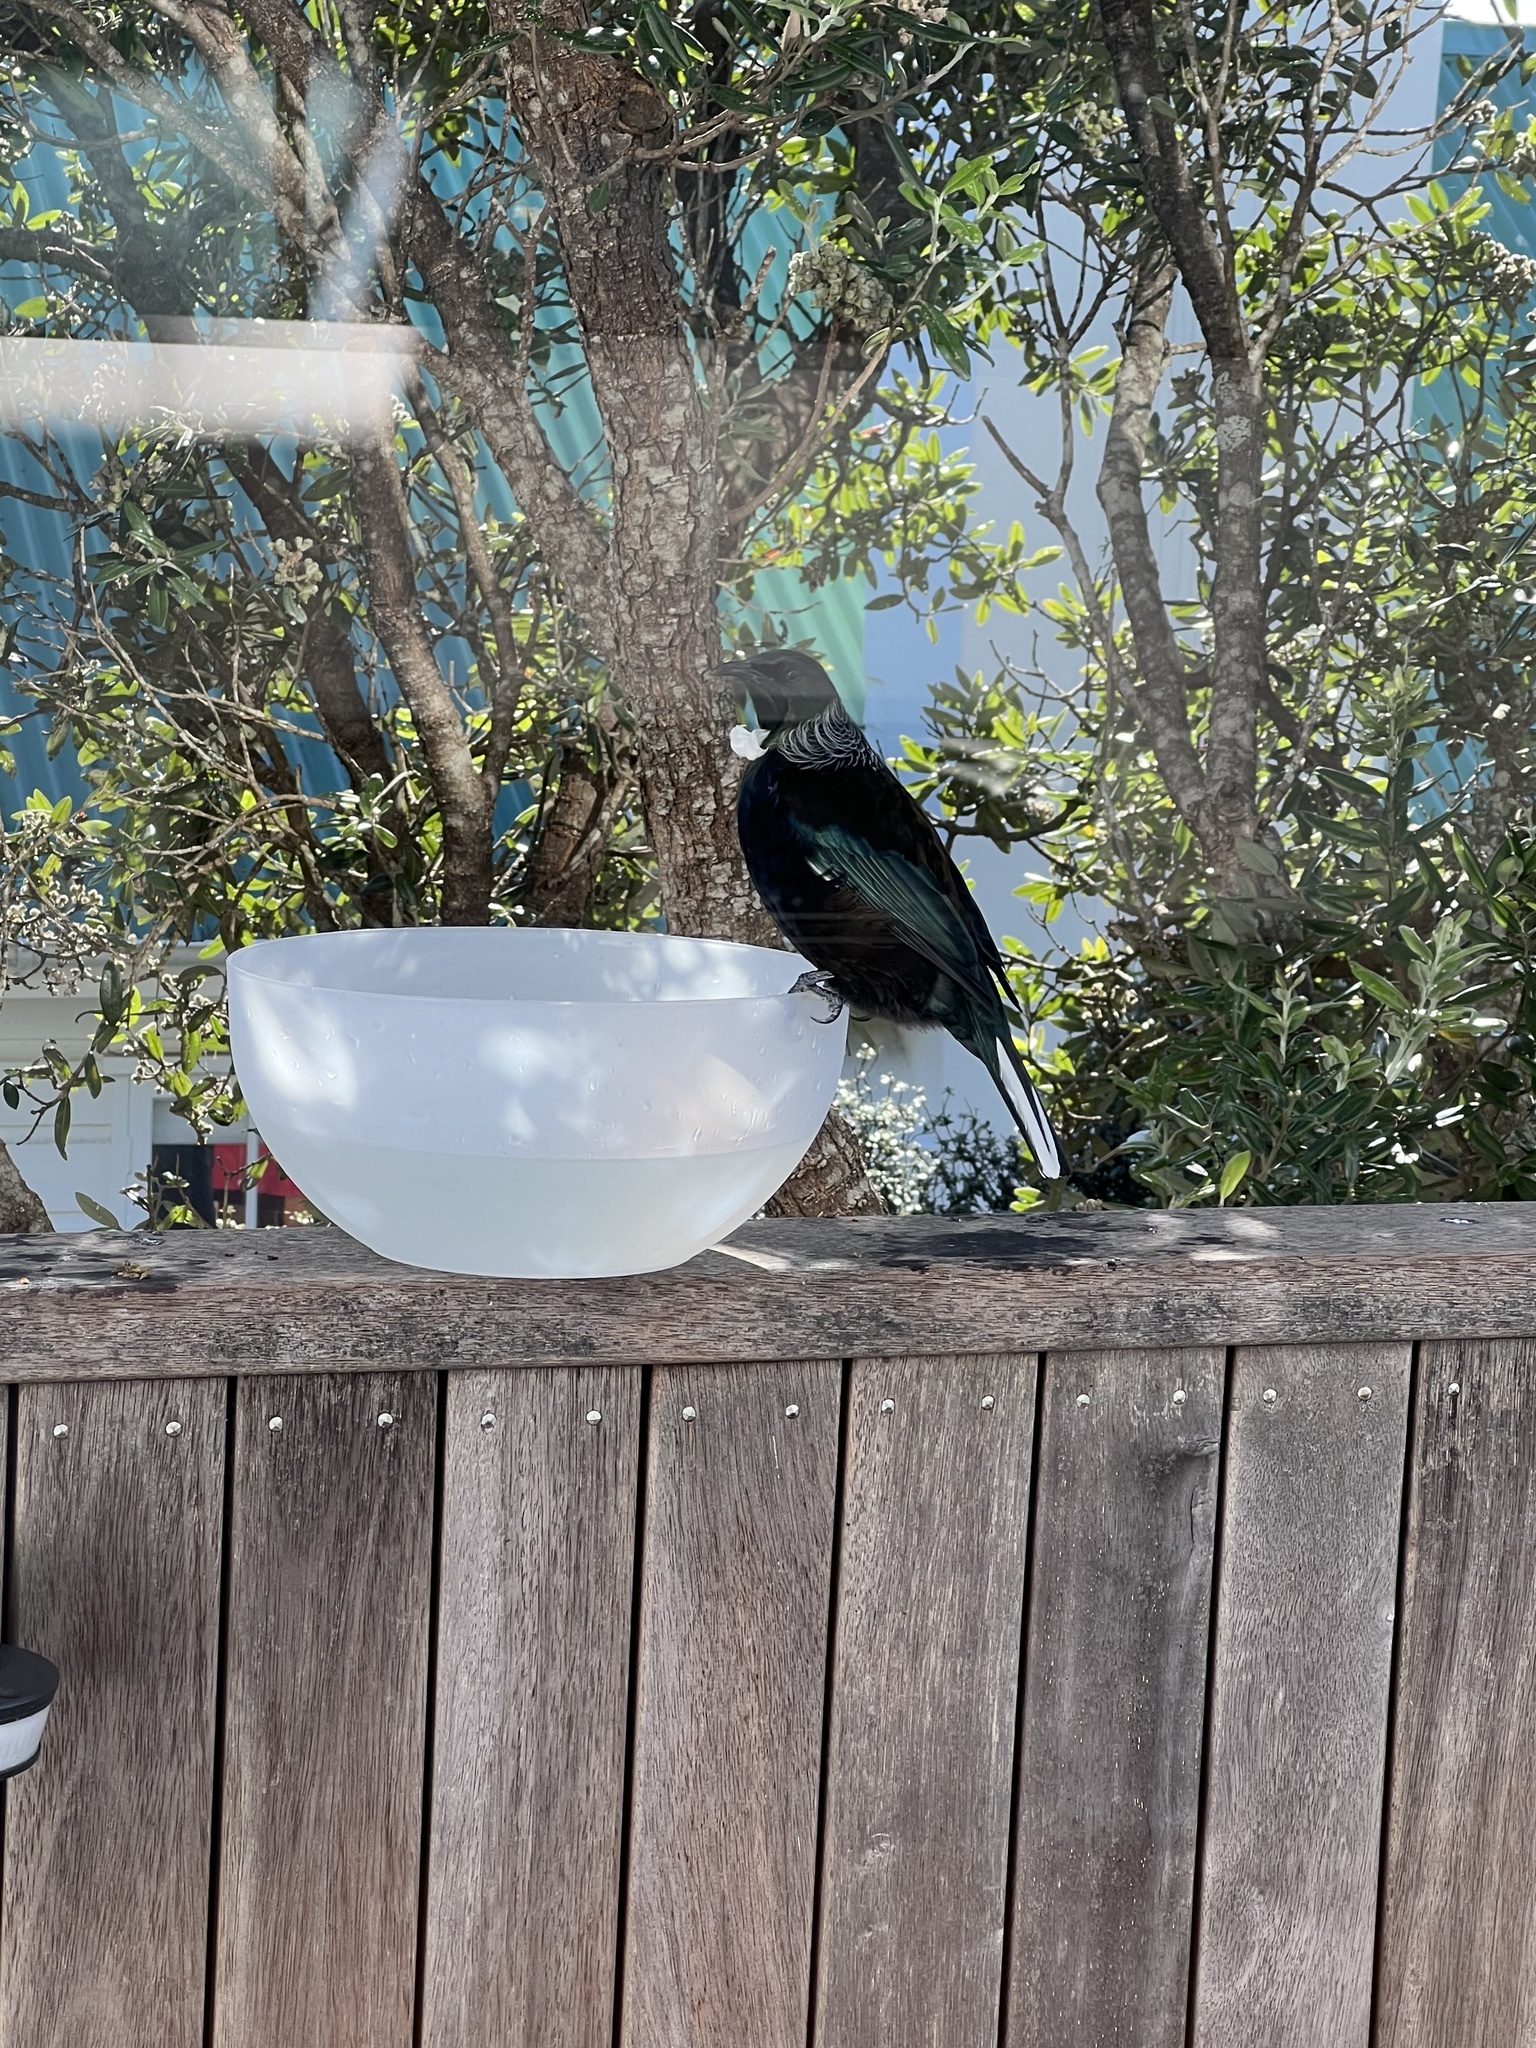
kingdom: Animalia
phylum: Chordata
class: Aves
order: Passeriformes
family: Meliphagidae
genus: Prosthemadera
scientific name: Prosthemadera novaeseelandiae
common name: Tui
